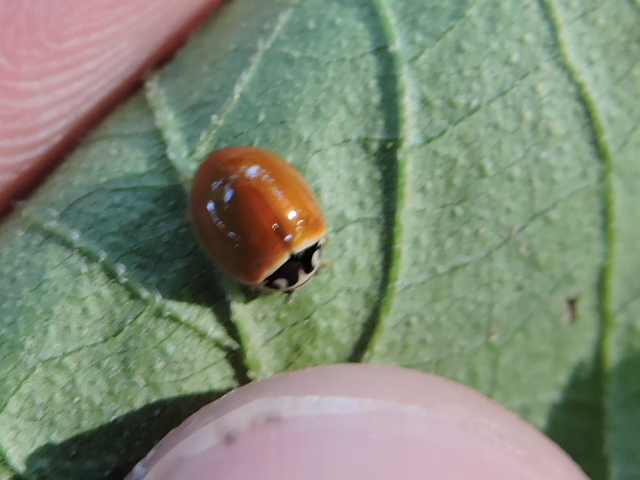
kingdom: Animalia
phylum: Arthropoda
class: Insecta
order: Coleoptera
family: Coccinellidae
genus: Cycloneda
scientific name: Cycloneda munda
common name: Polished lady beetle
